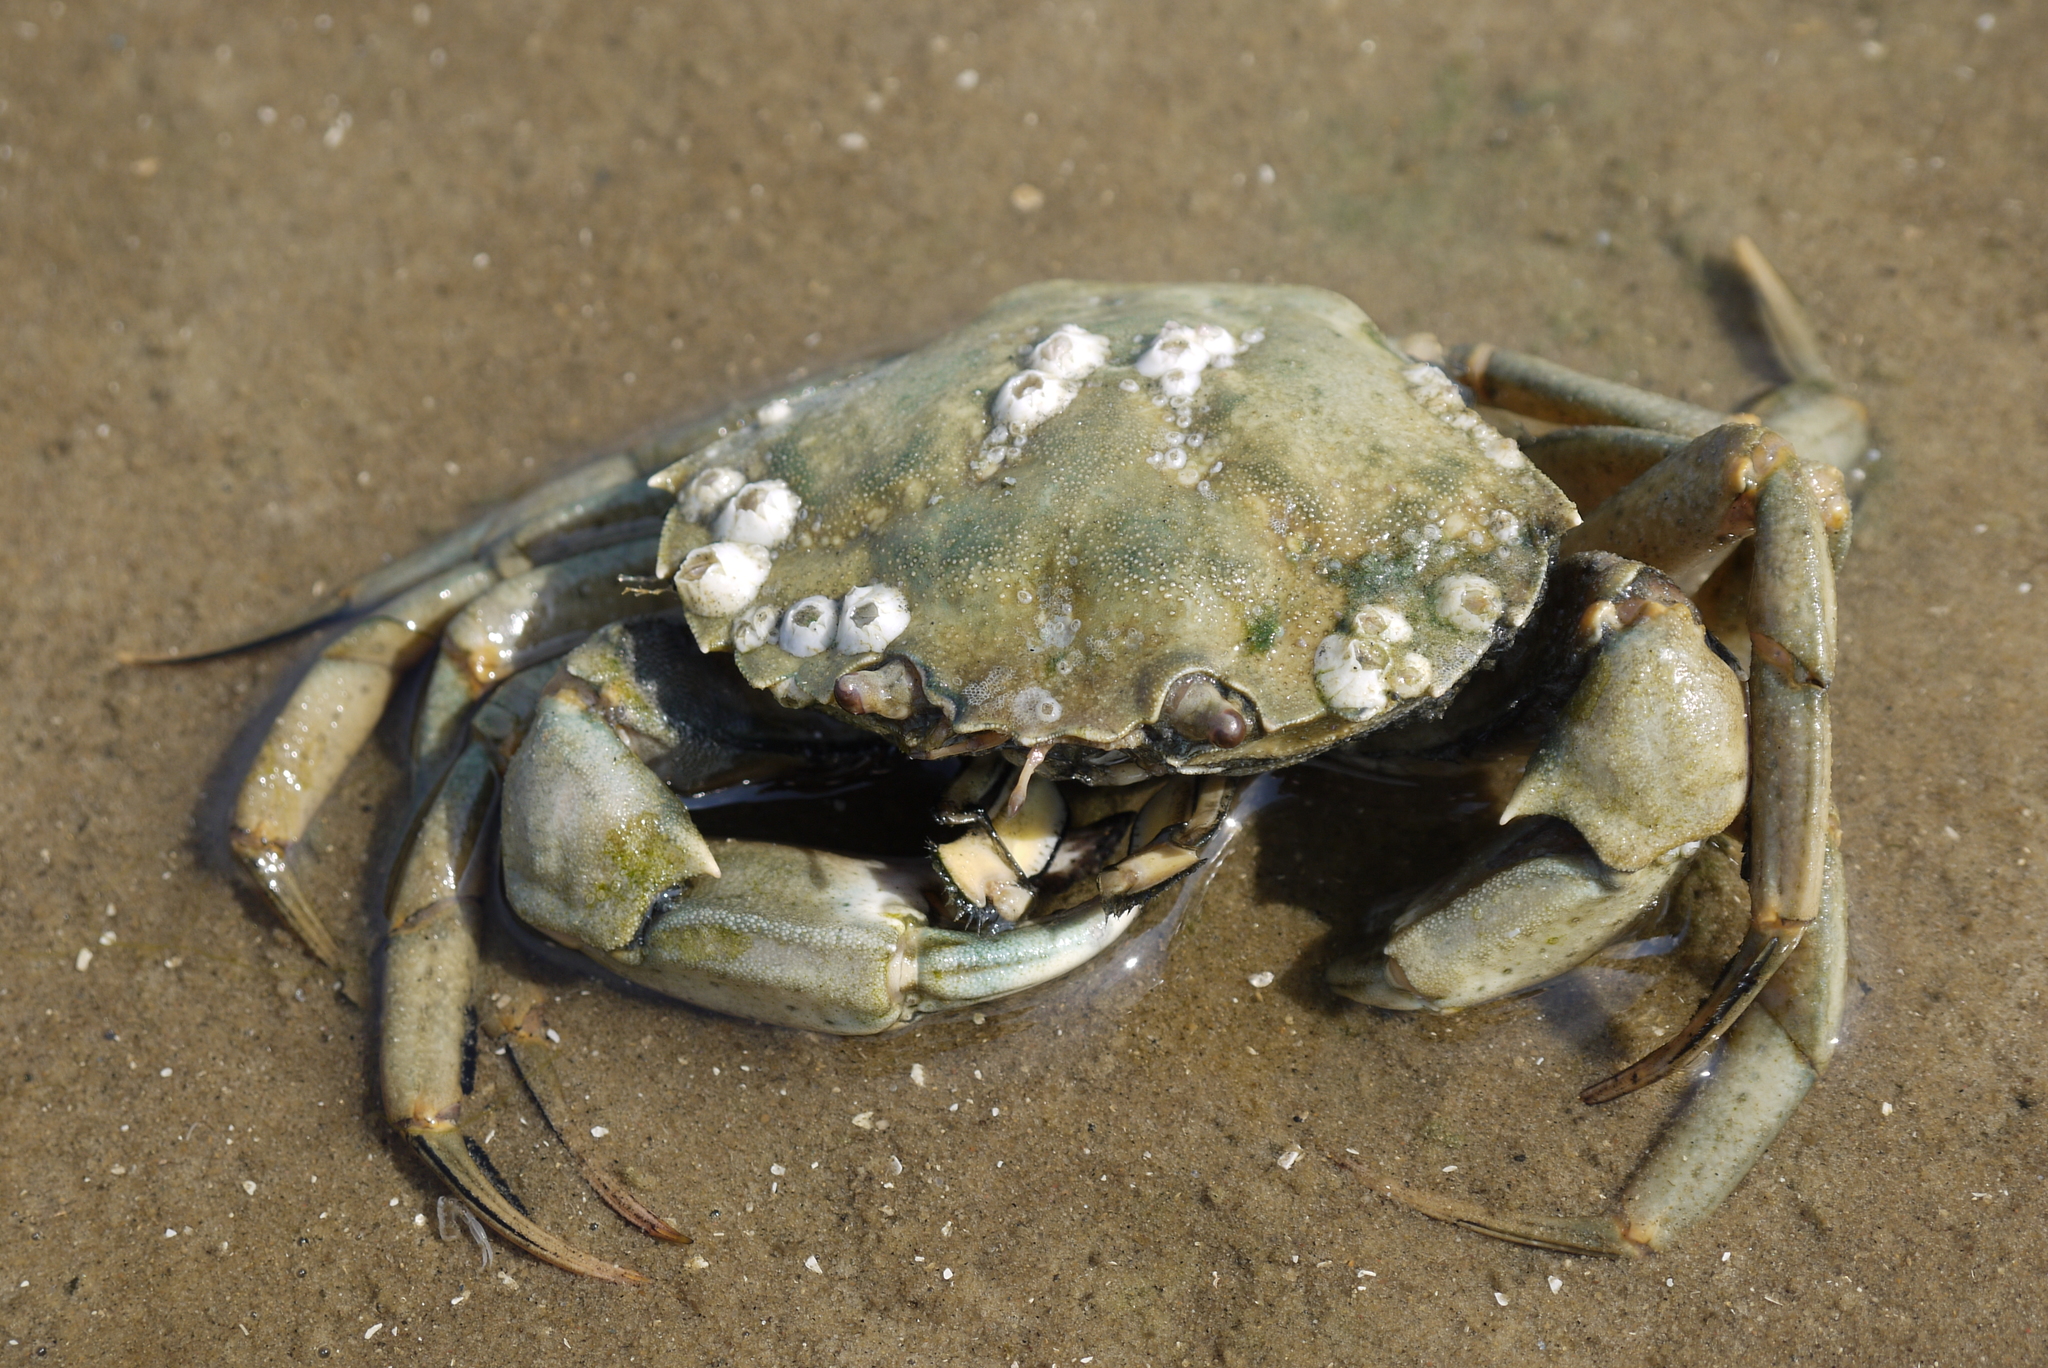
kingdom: Animalia
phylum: Arthropoda
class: Malacostraca
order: Decapoda
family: Carcinidae
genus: Carcinus
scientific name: Carcinus maenas
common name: European green crab
